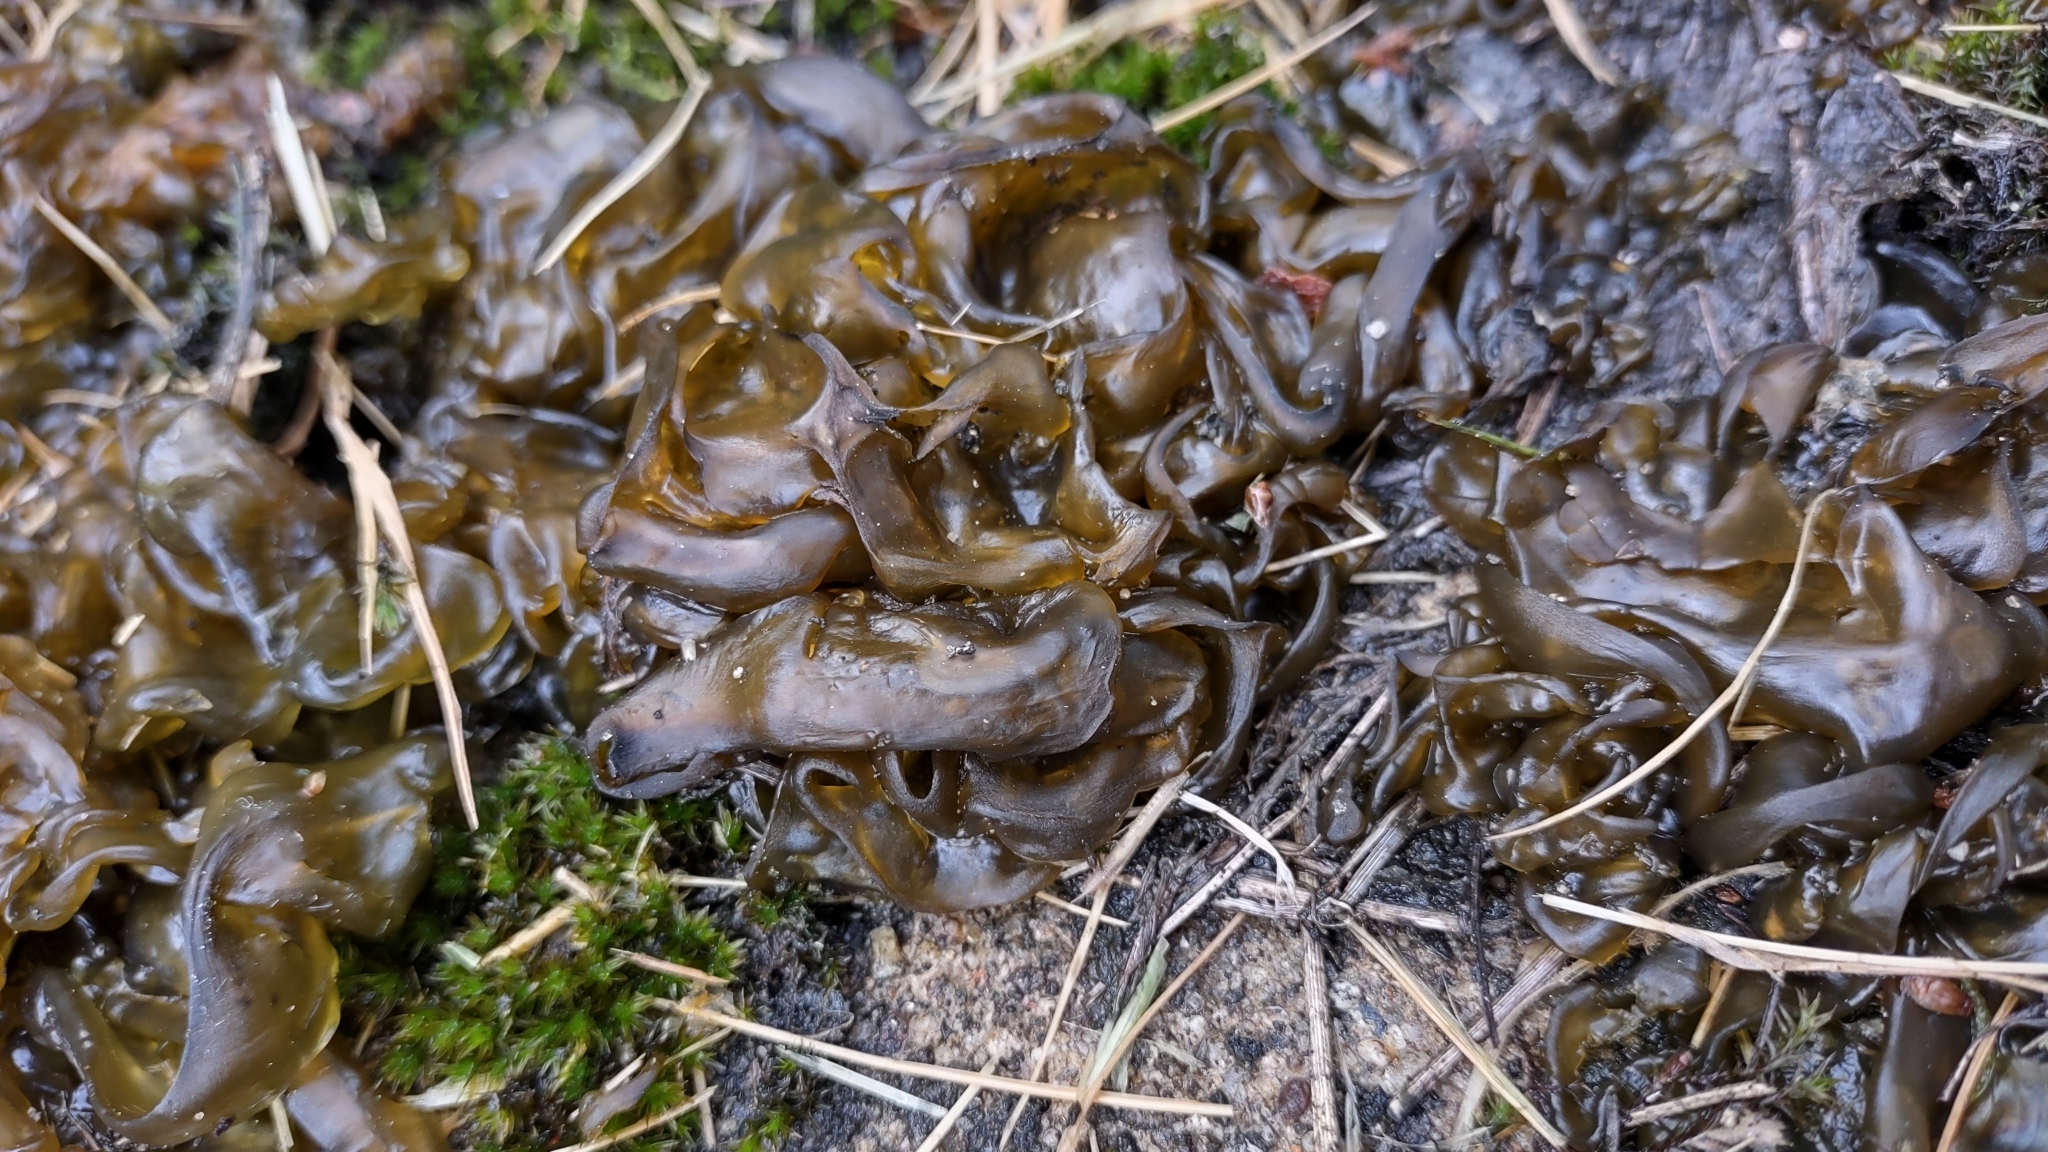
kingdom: Bacteria
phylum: Cyanobacteria
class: Cyanobacteriia
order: Cyanobacteriales
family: Nostocaceae
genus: Nostoc
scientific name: Nostoc commune
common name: Star jelly
